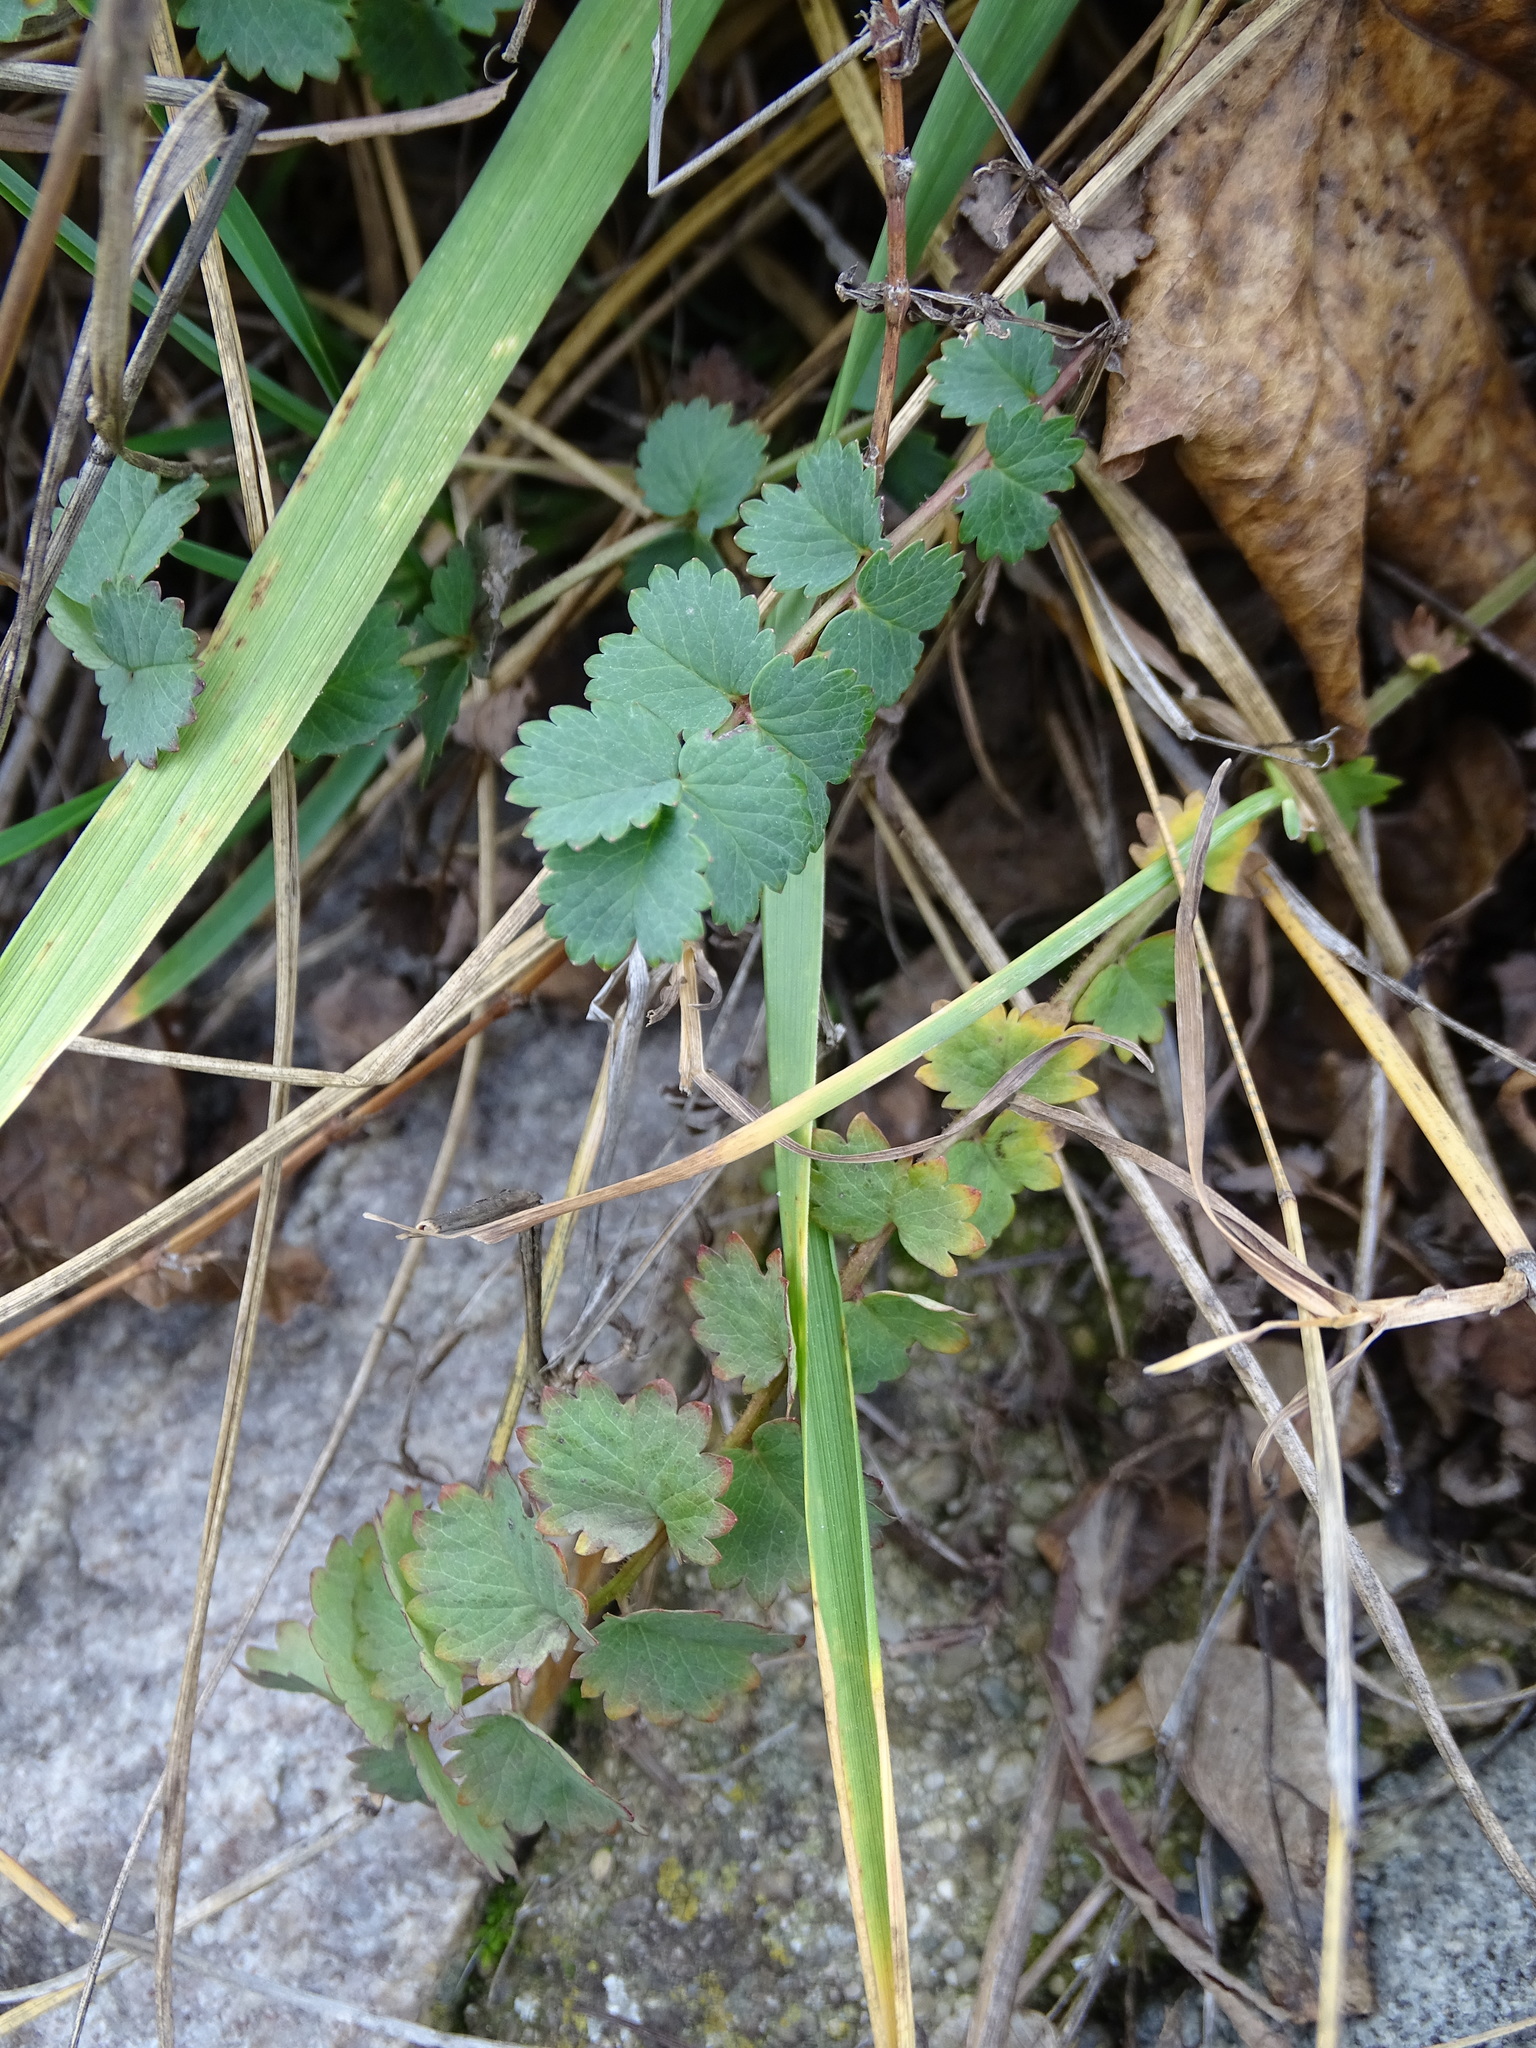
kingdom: Plantae
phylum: Tracheophyta
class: Magnoliopsida
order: Rosales
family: Rosaceae
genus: Poterium
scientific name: Poterium sanguisorba
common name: Salad burnet
